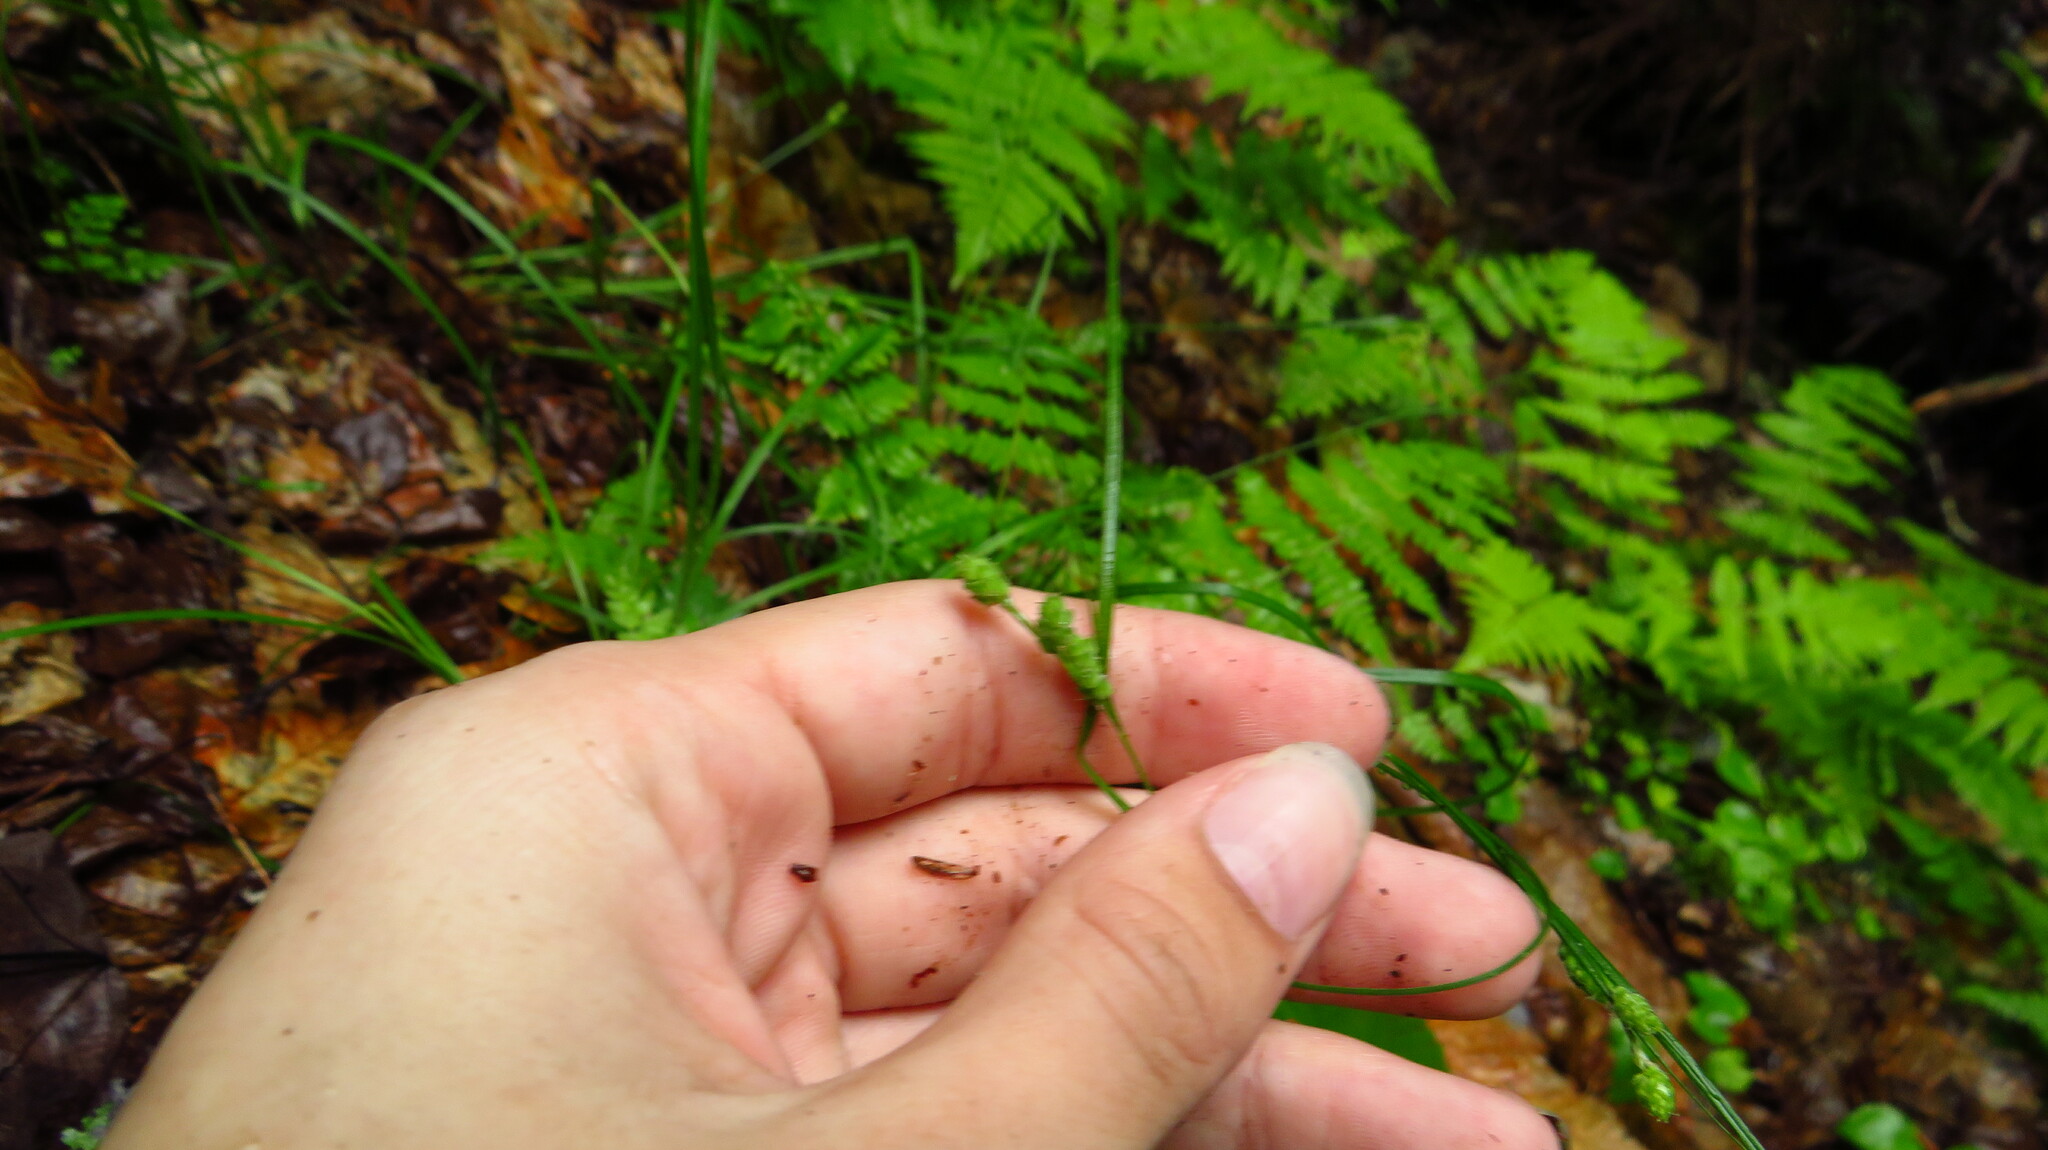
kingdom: Plantae
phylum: Tracheophyta
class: Liliopsida
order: Poales
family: Cyperaceae
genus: Carex
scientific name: Carex swanii
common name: Downy green sedge
